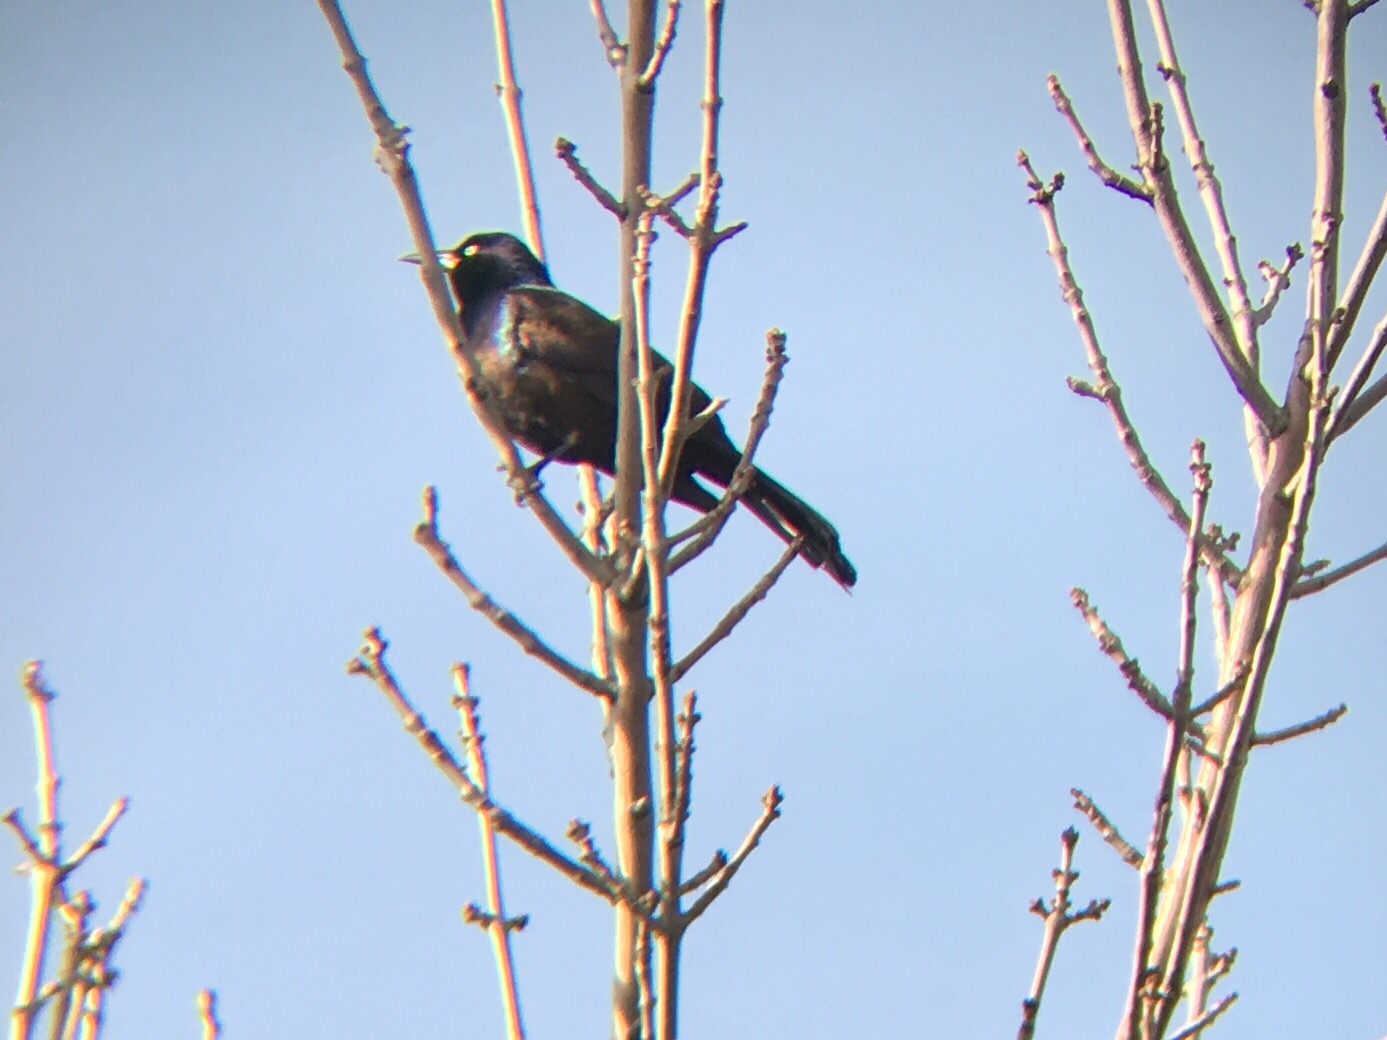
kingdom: Animalia
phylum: Chordata
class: Aves
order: Passeriformes
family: Icteridae
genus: Quiscalus
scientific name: Quiscalus quiscula
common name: Common grackle
